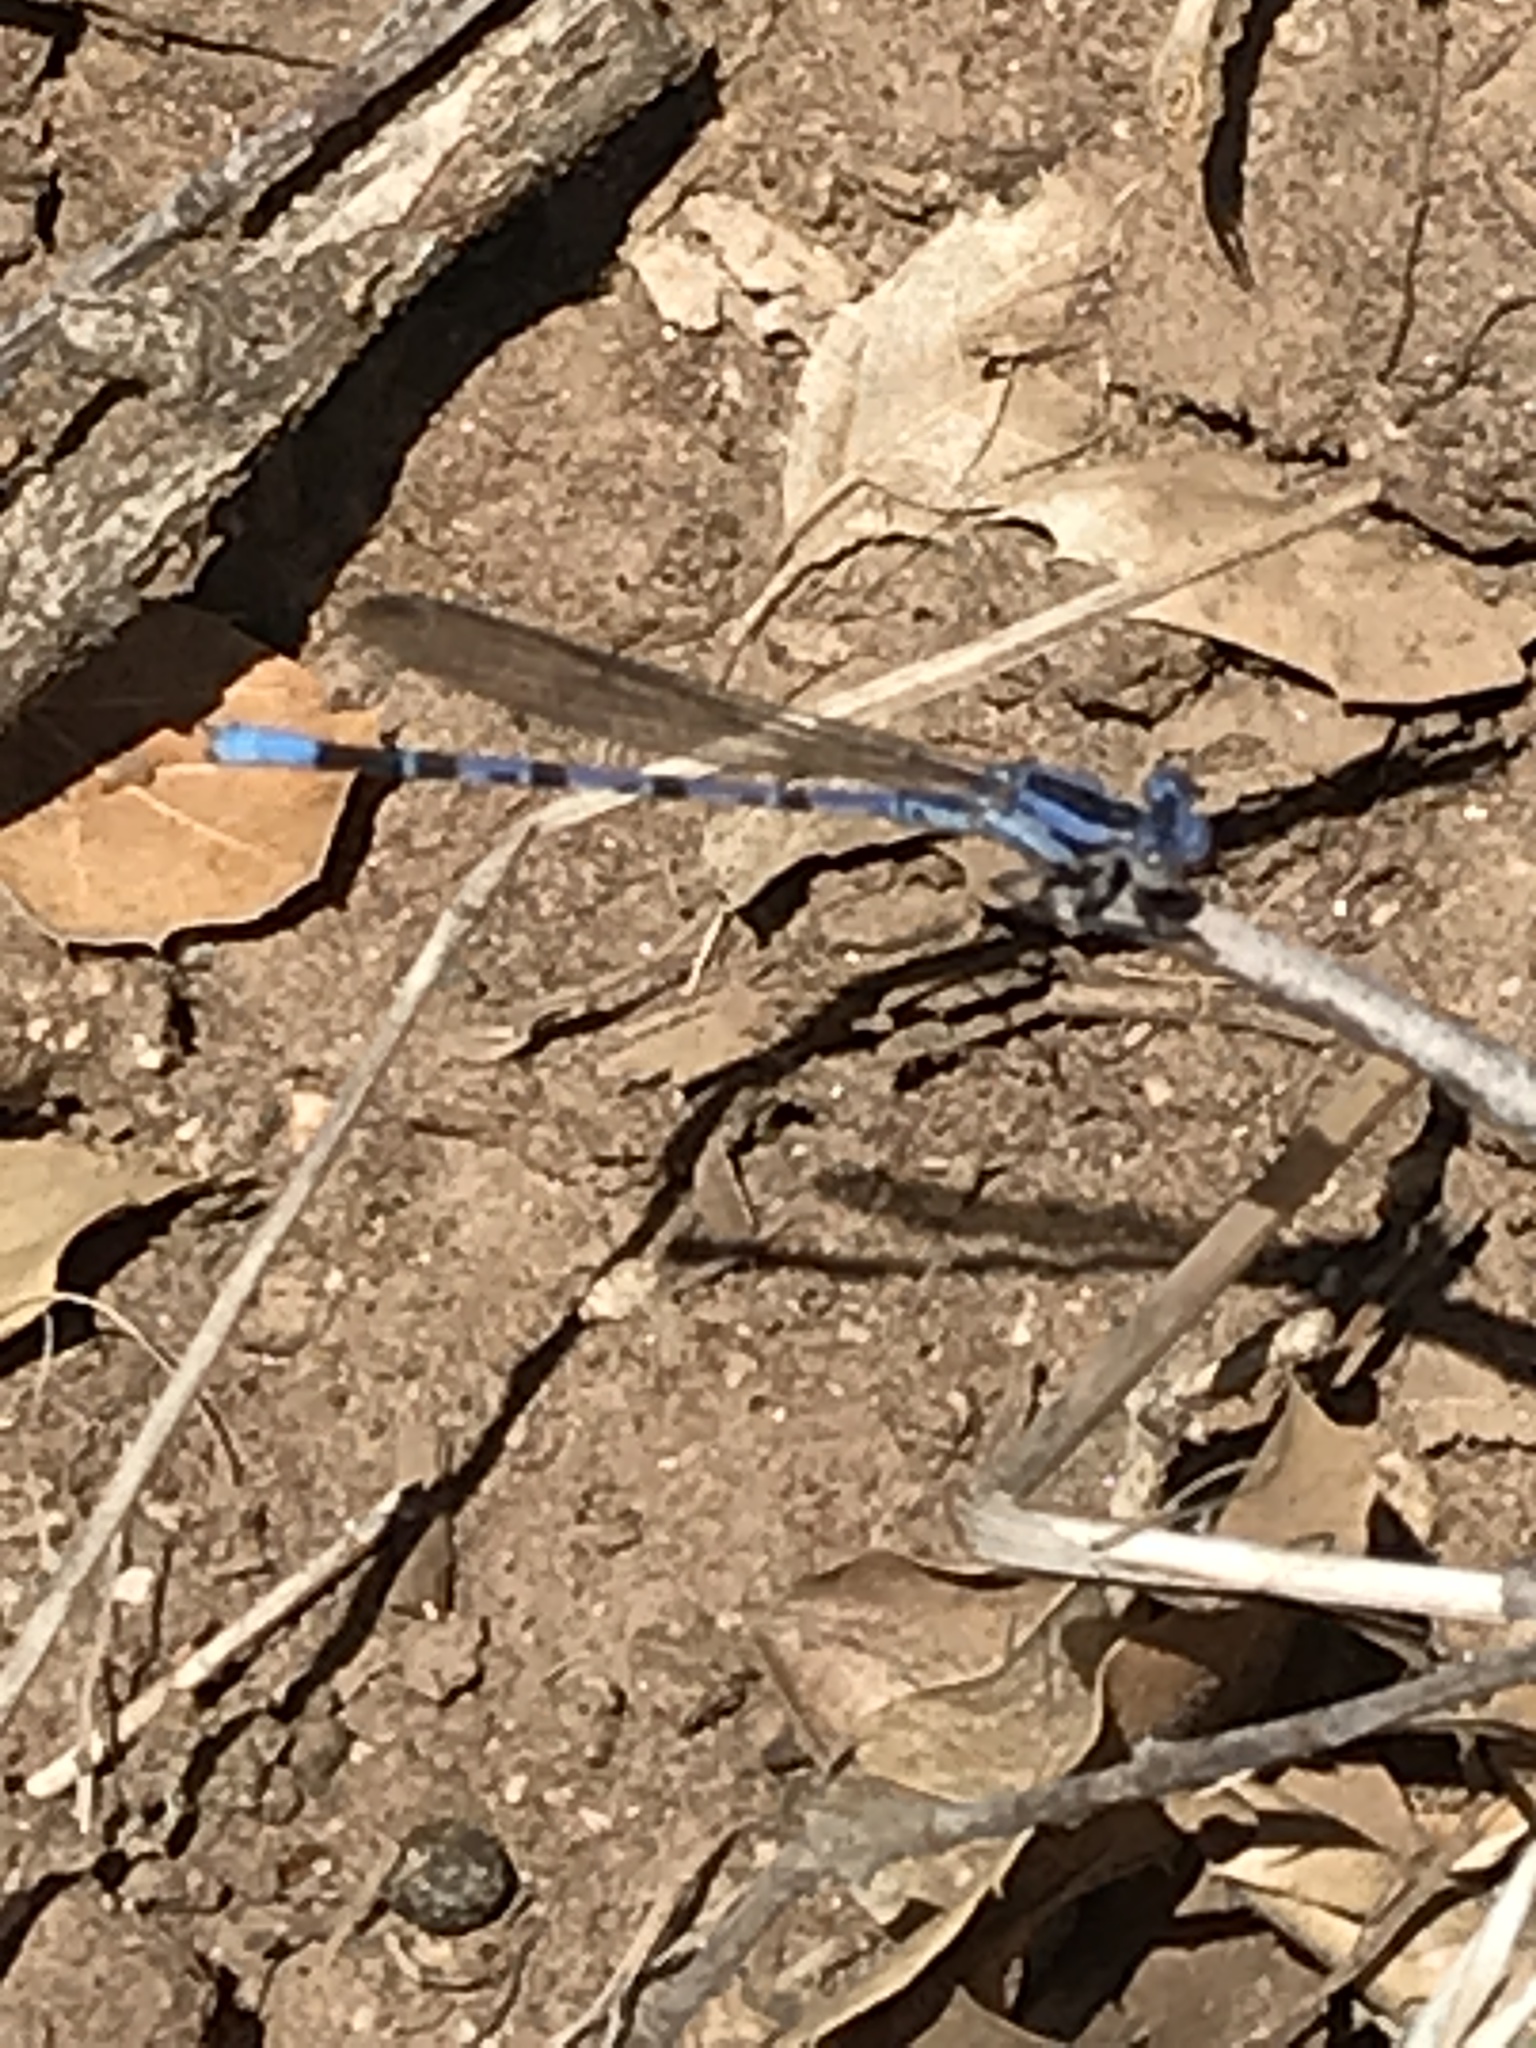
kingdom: Animalia
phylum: Arthropoda
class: Insecta
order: Odonata
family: Coenagrionidae
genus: Argia
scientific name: Argia vivida
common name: Vivid dancer
